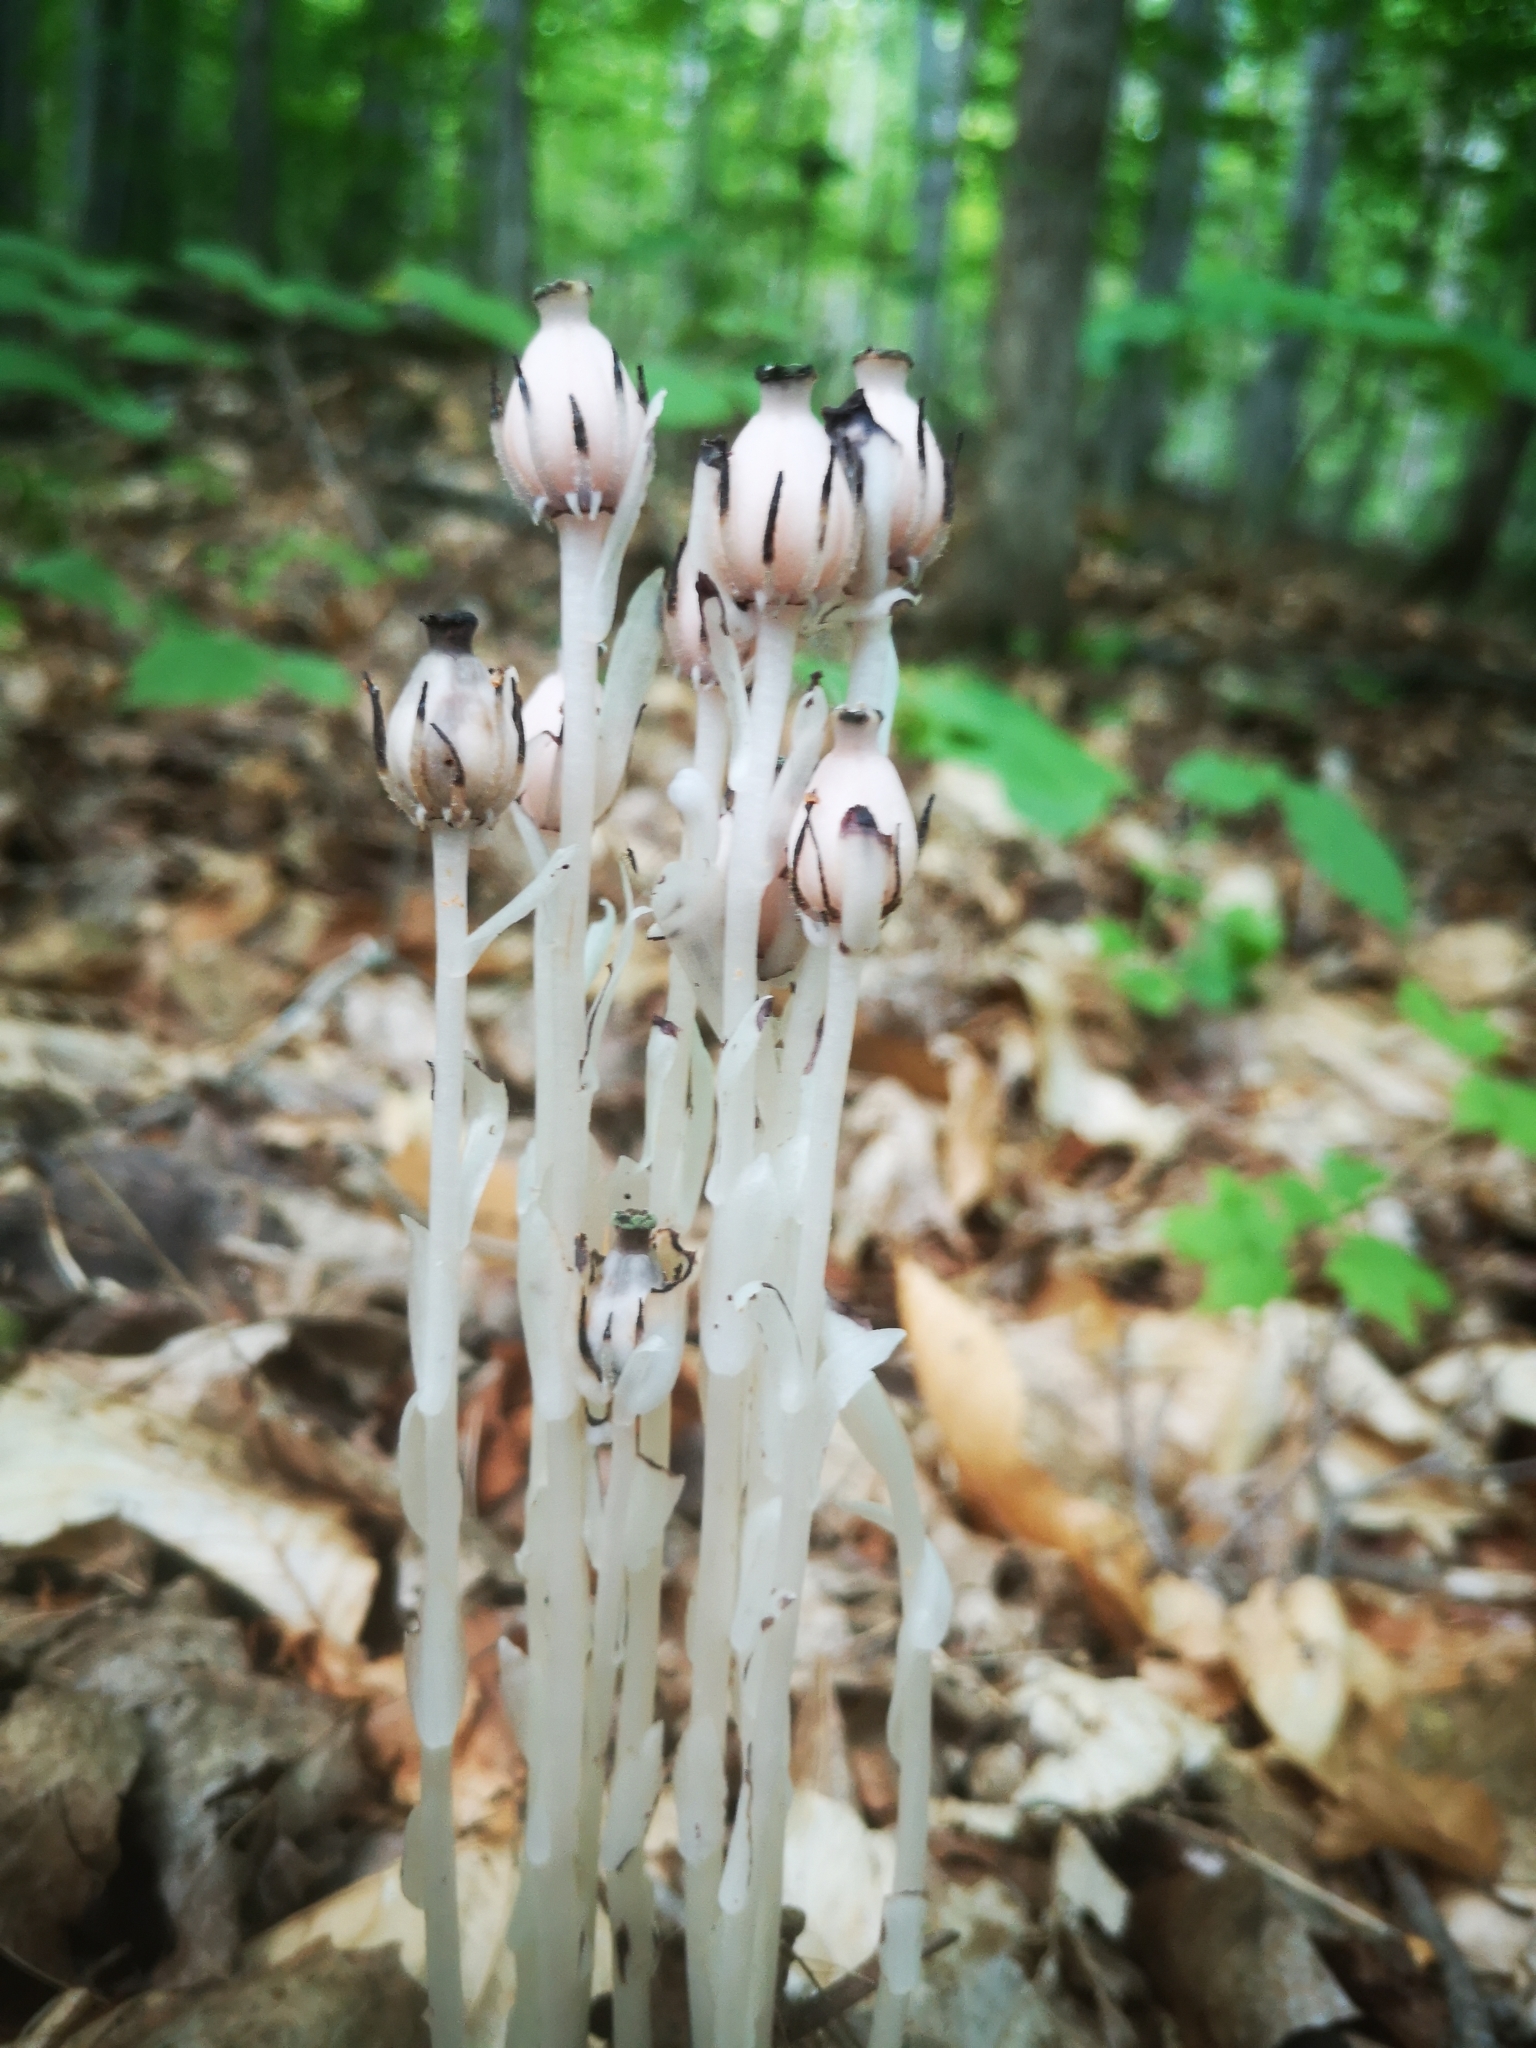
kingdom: Plantae
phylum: Tracheophyta
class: Magnoliopsida
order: Ericales
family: Ericaceae
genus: Monotropa
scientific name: Monotropa uniflora
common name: Convulsion root
